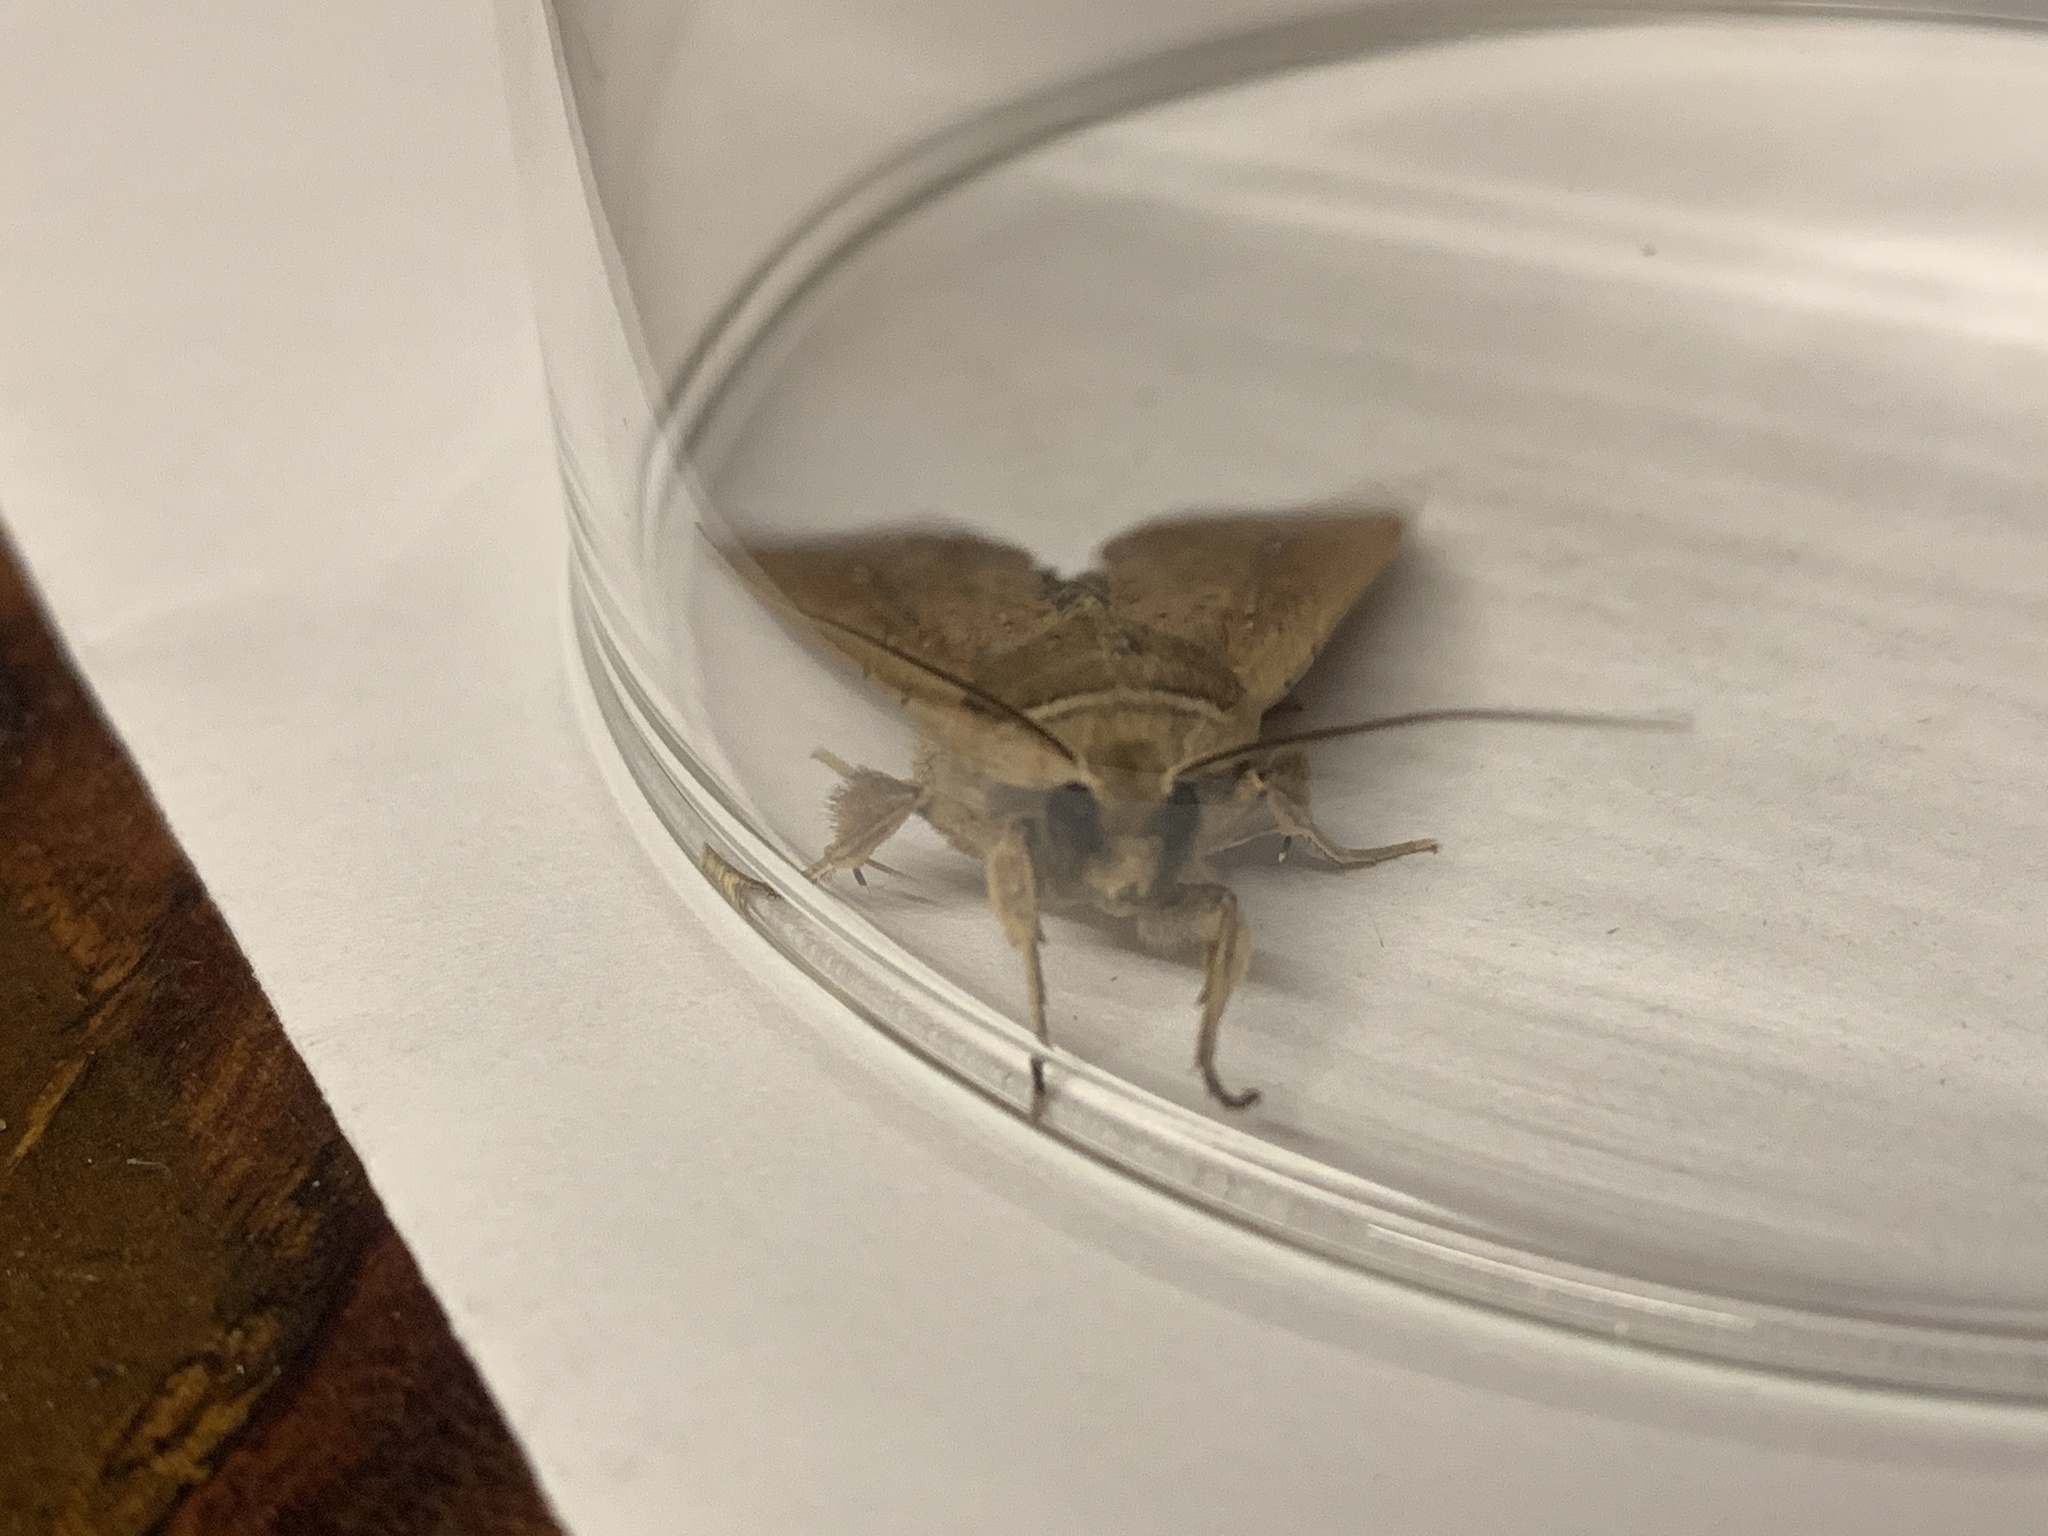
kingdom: Animalia
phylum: Arthropoda
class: Insecta
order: Lepidoptera
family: Noctuidae
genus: Mythimna
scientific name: Mythimna unipuncta
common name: White-speck
